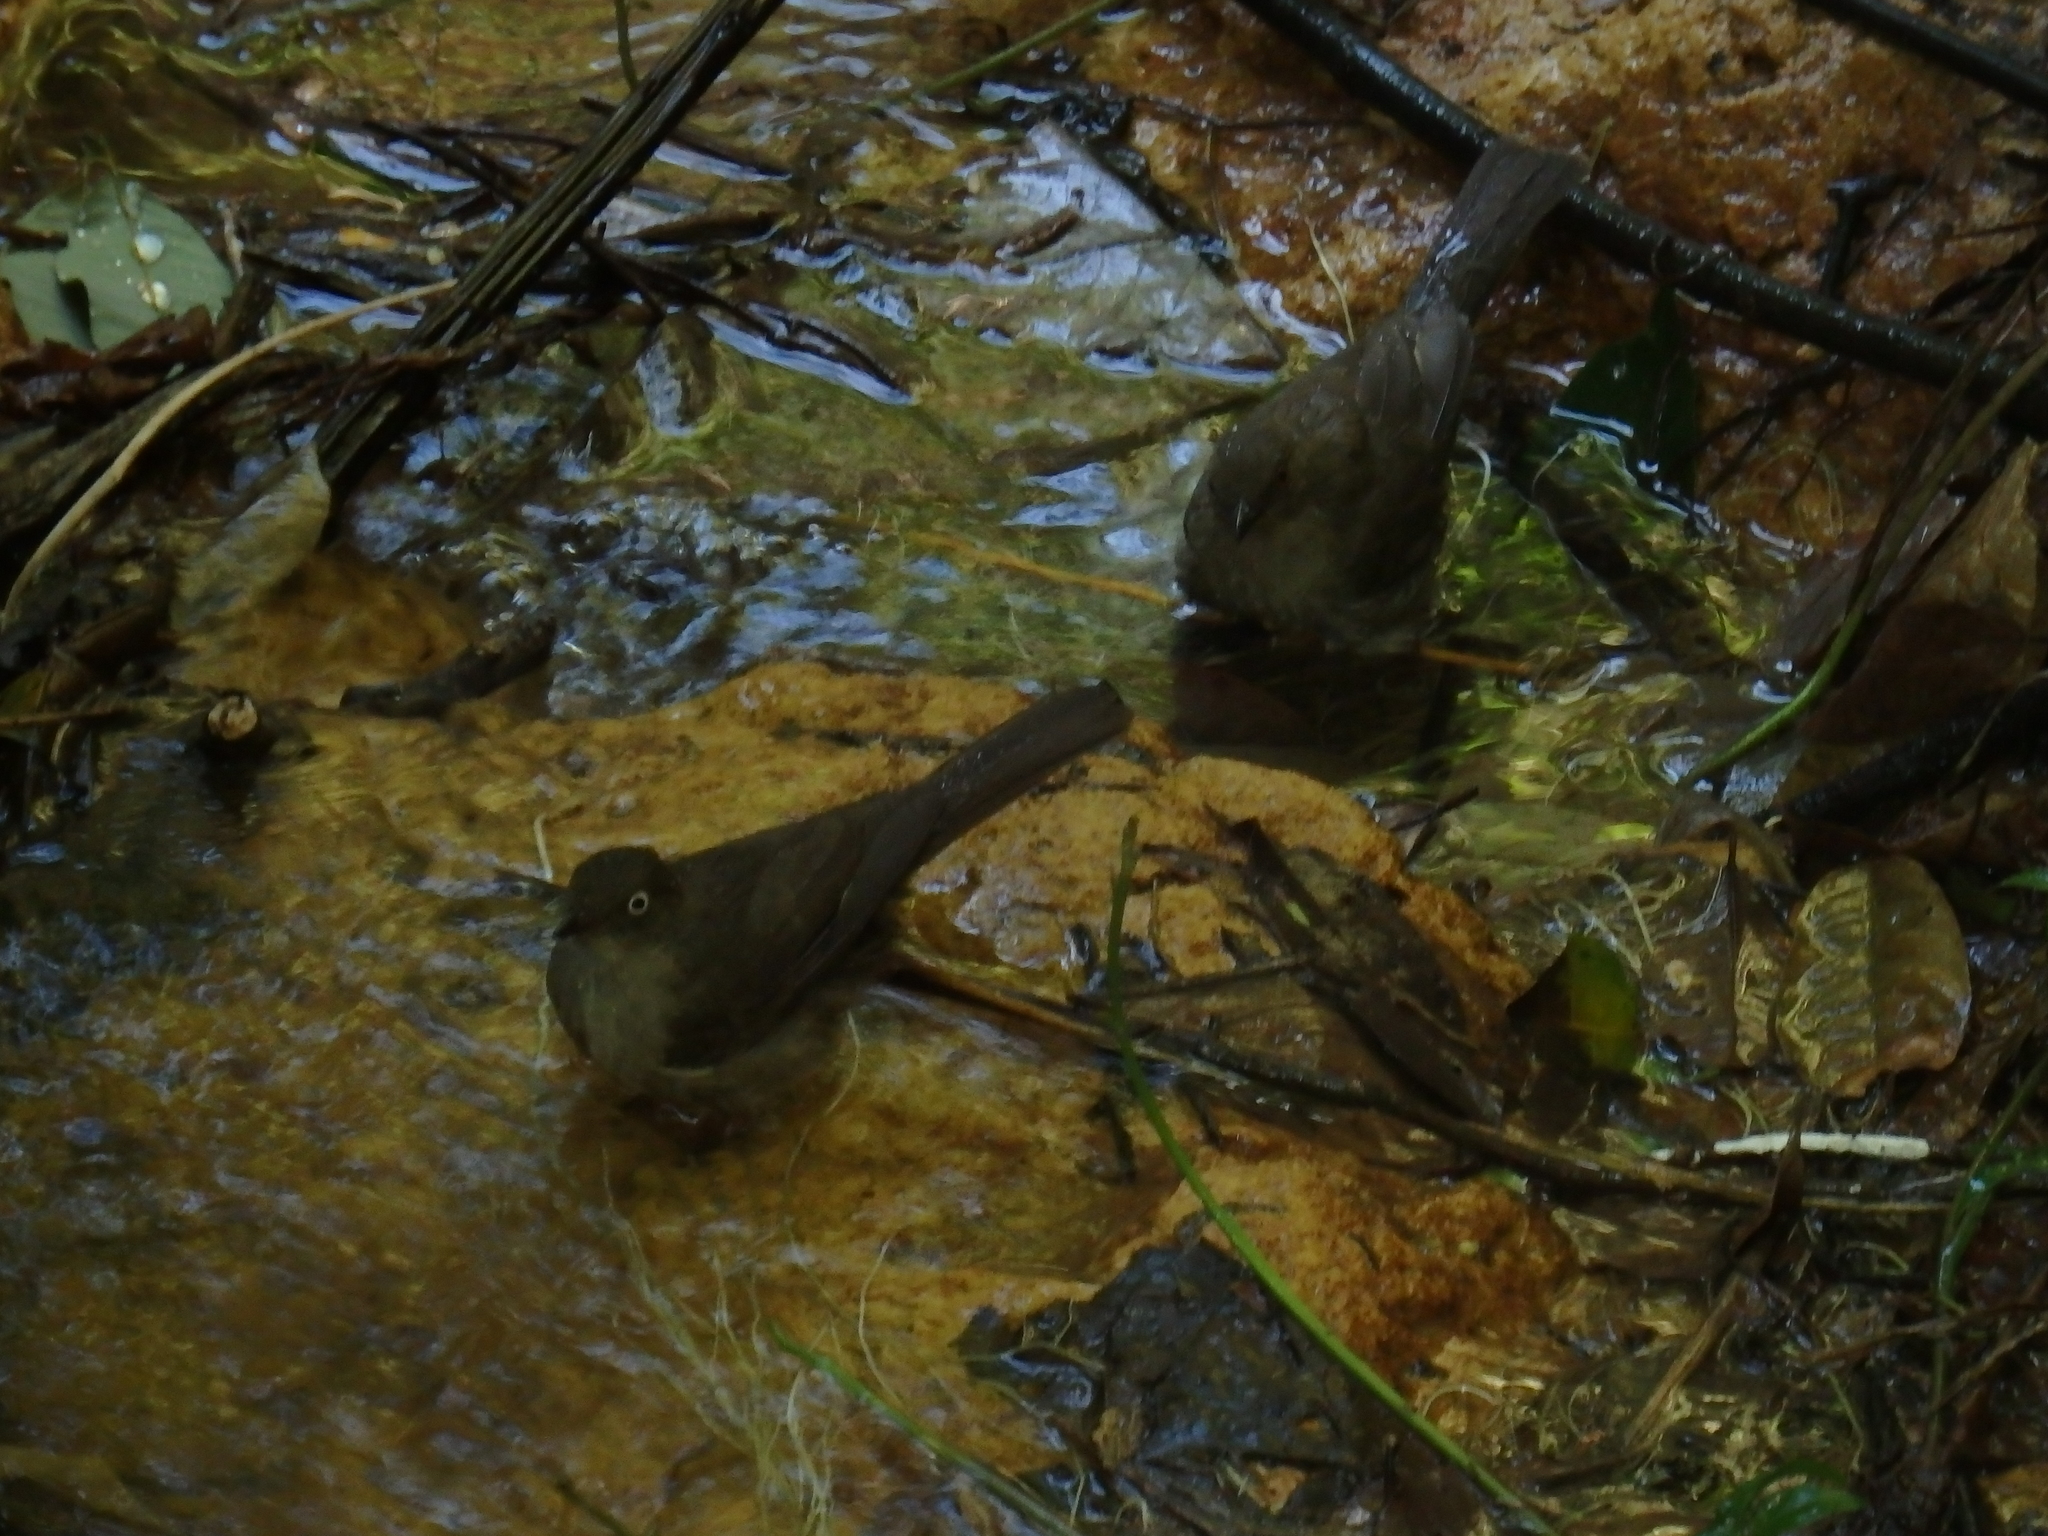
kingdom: Animalia
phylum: Chordata
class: Aves
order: Passeriformes
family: Pycnonotidae
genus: Pycnonotus
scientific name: Pycnonotus simplex
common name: Cream-vented bulbul
